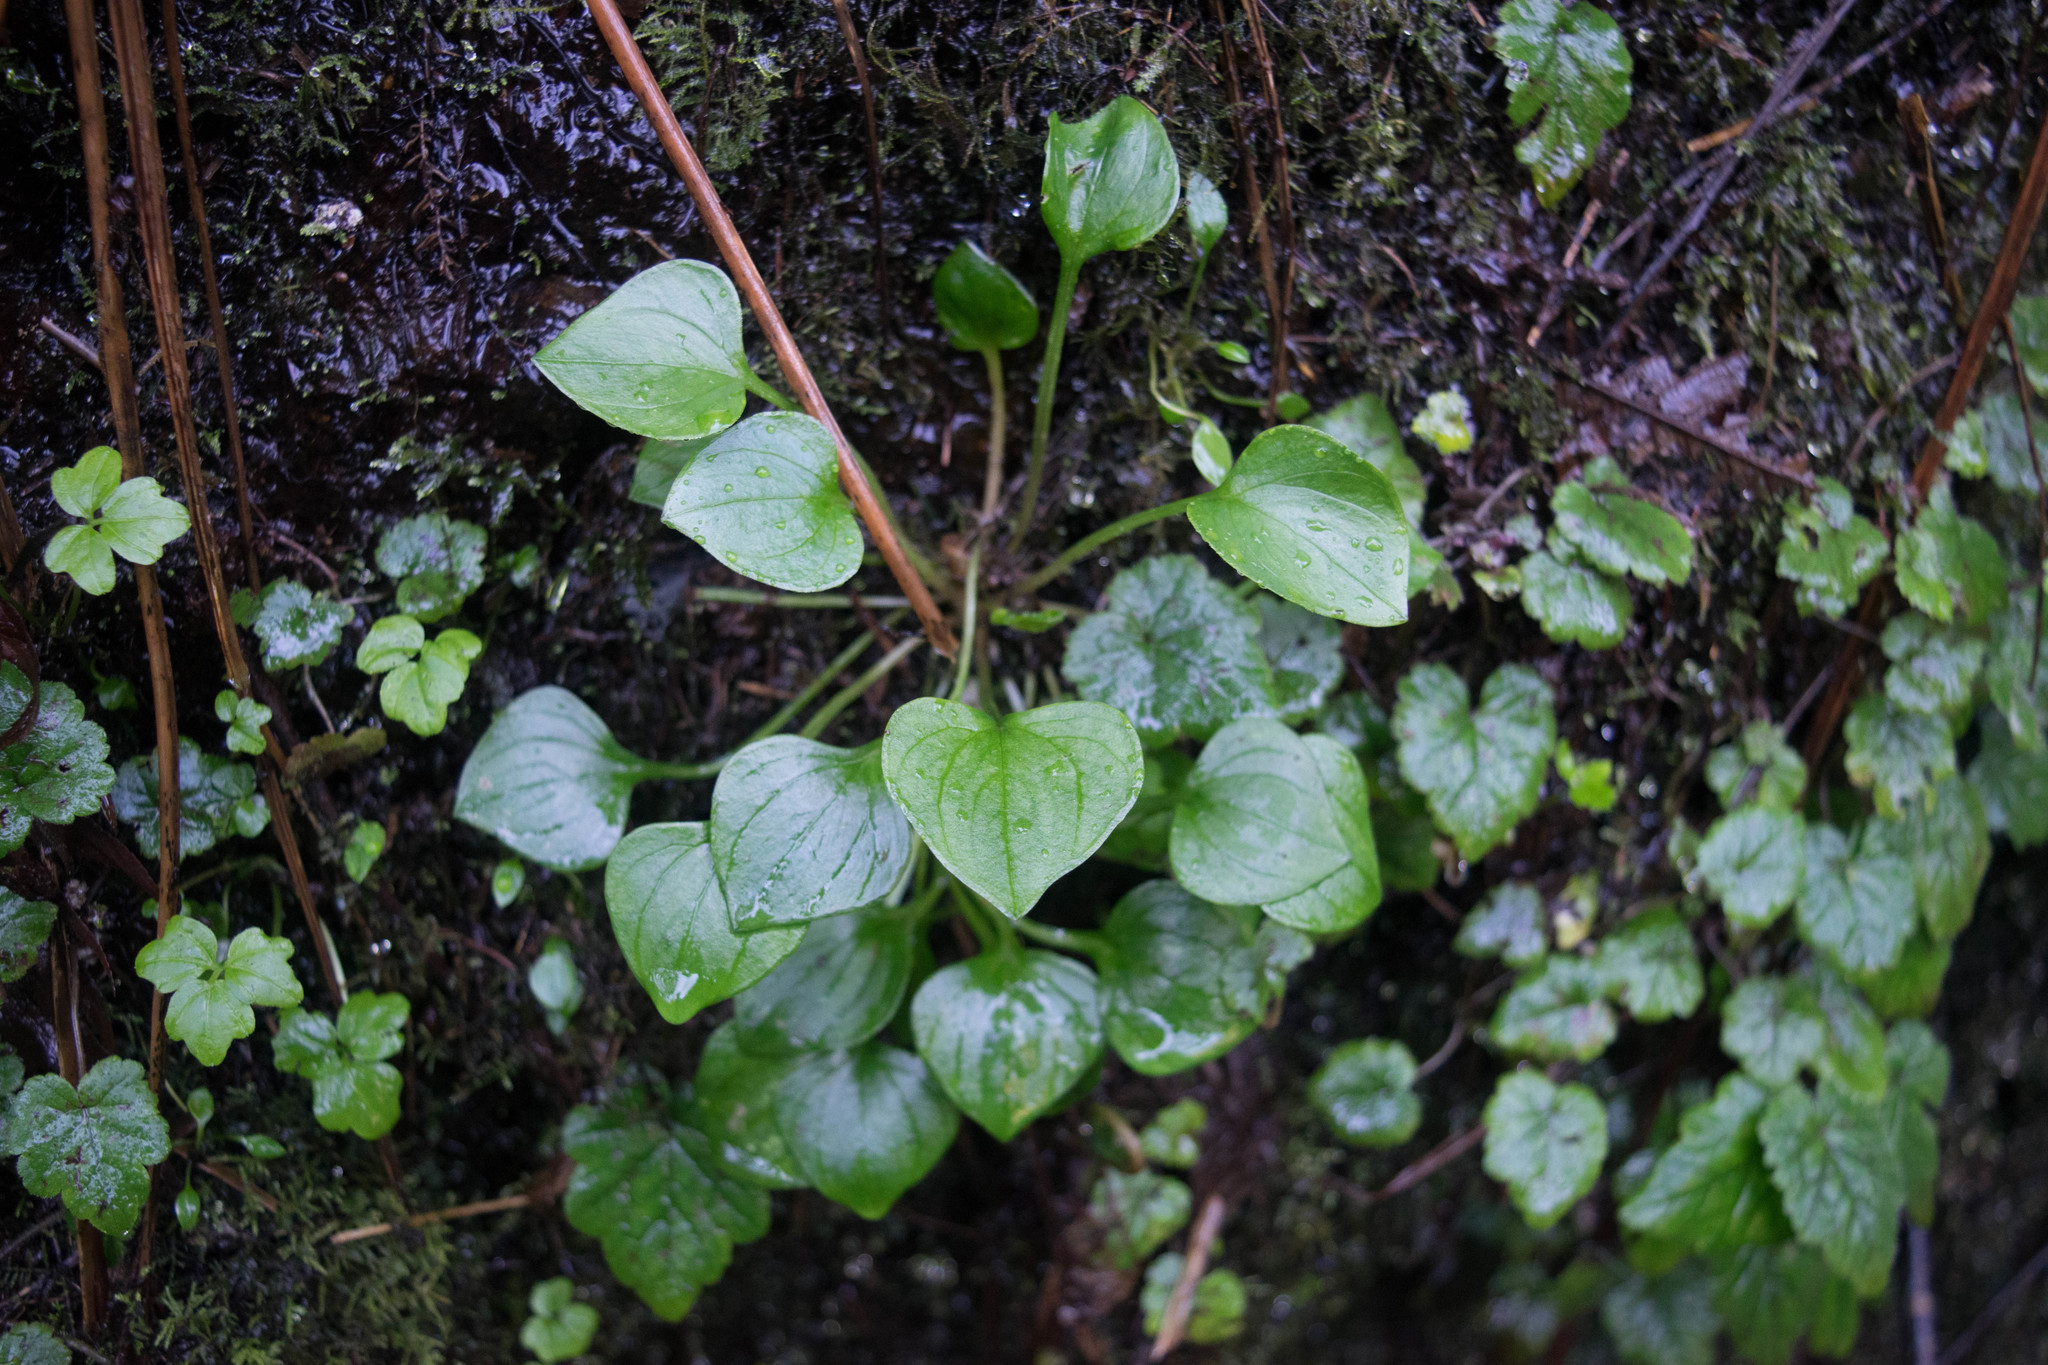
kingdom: Plantae
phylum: Tracheophyta
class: Magnoliopsida
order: Caryophyllales
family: Montiaceae
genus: Claytonia
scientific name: Claytonia sibirica
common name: Pink purslane
